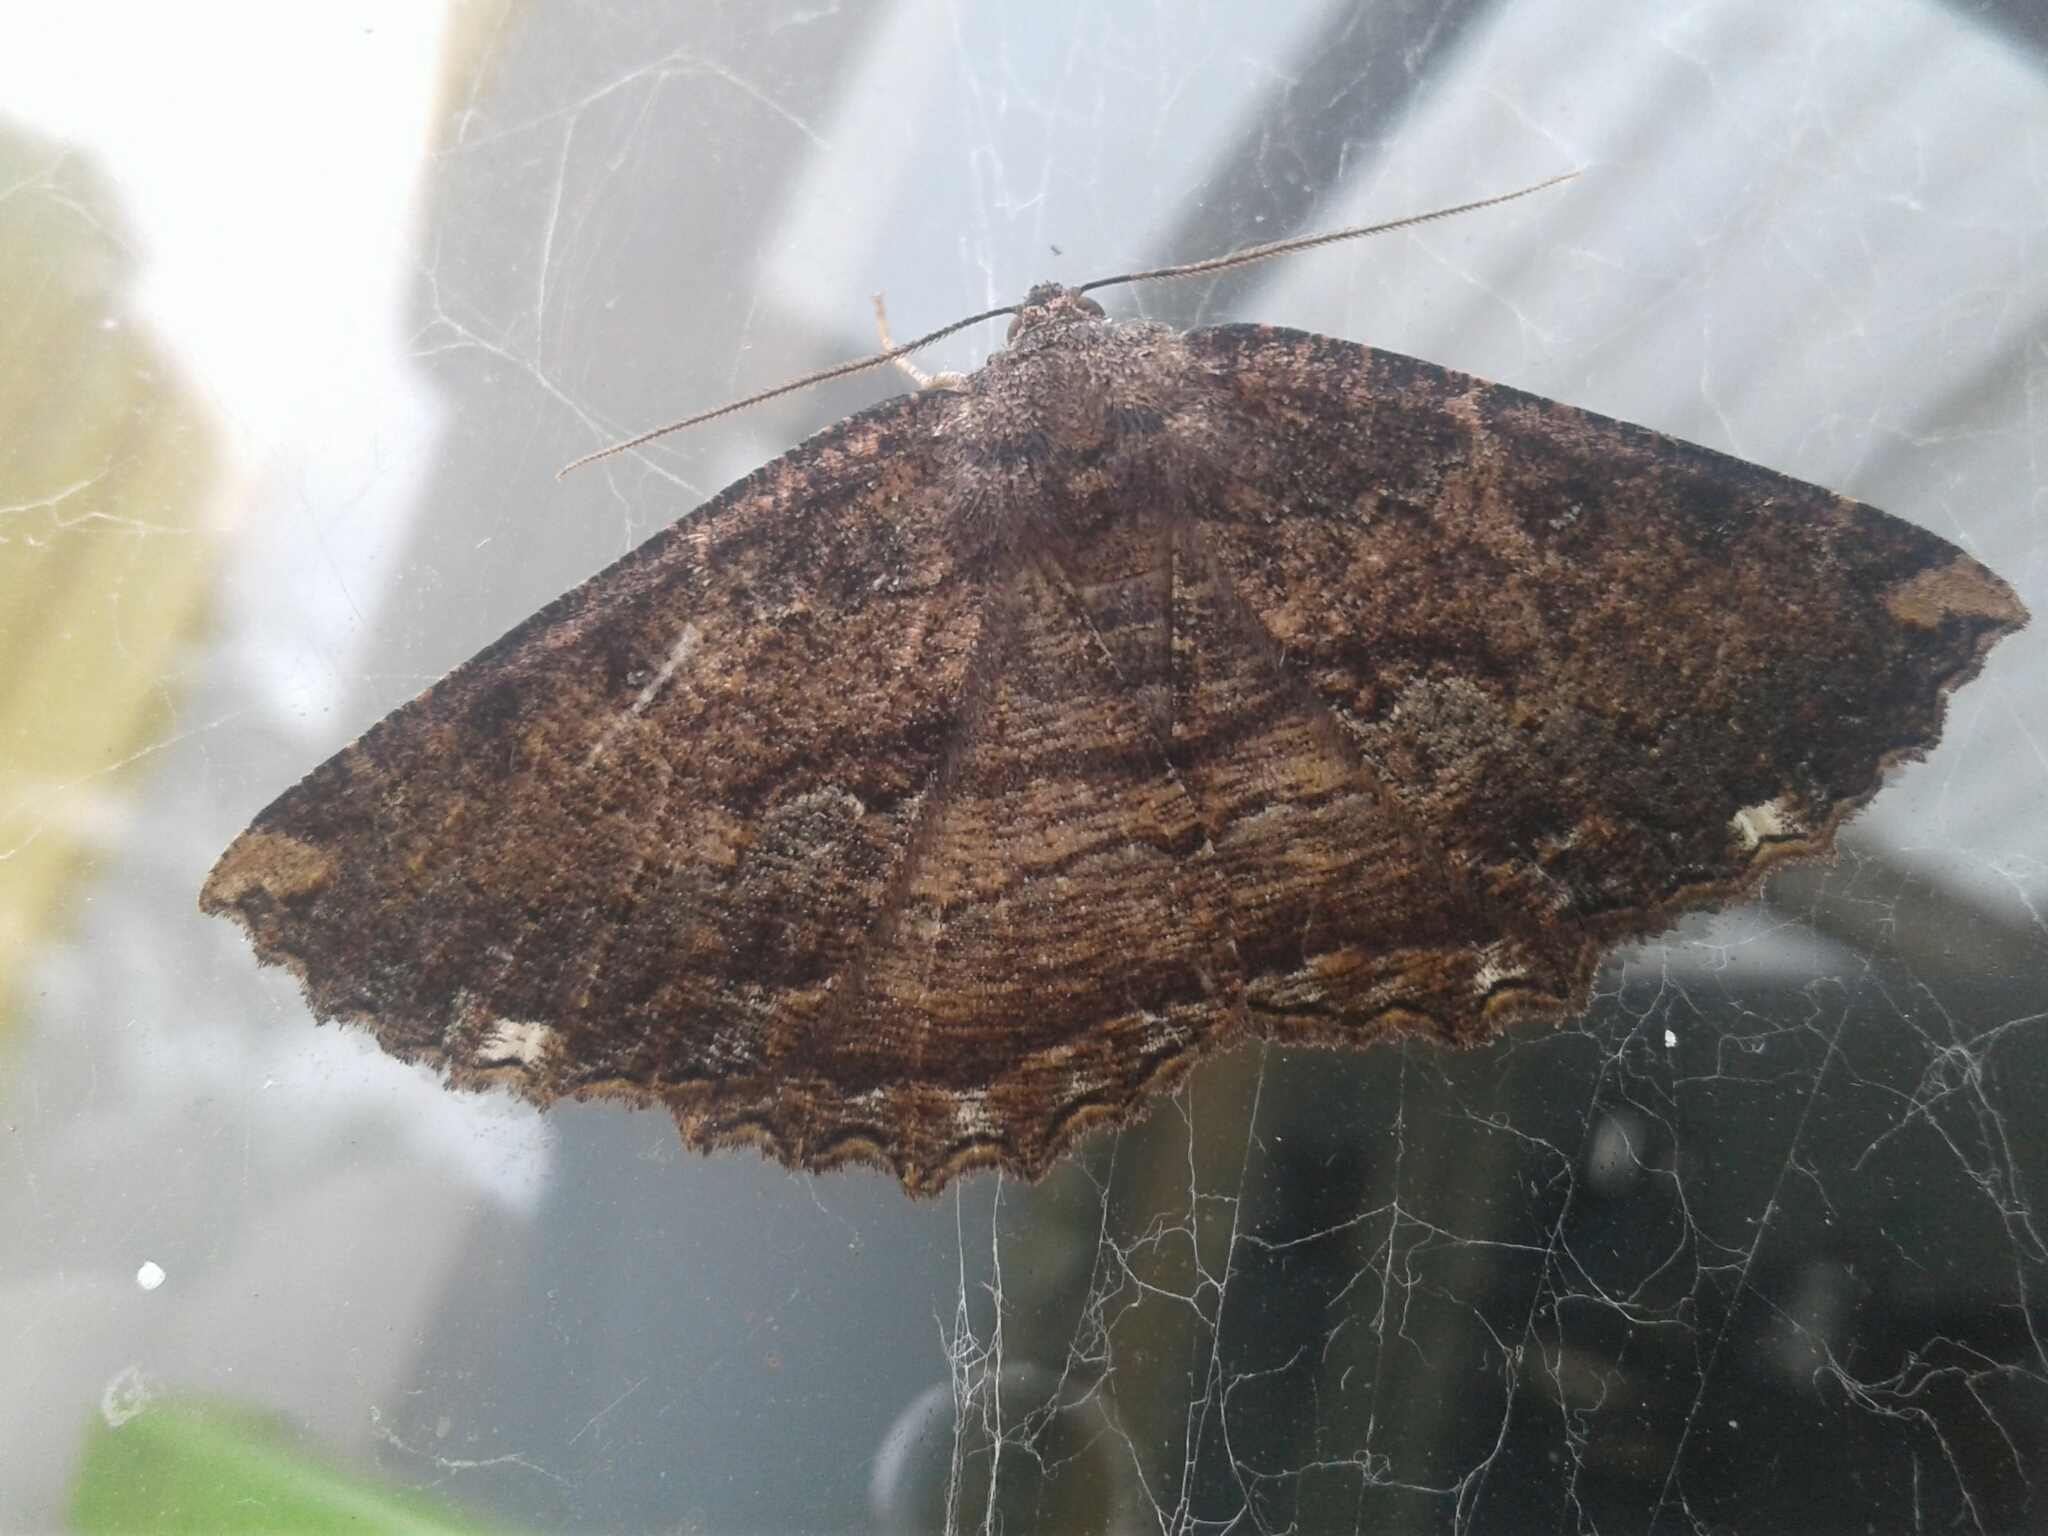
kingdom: Animalia
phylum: Arthropoda
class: Insecta
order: Lepidoptera
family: Geometridae
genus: Gellonia
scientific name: Gellonia dejectaria
